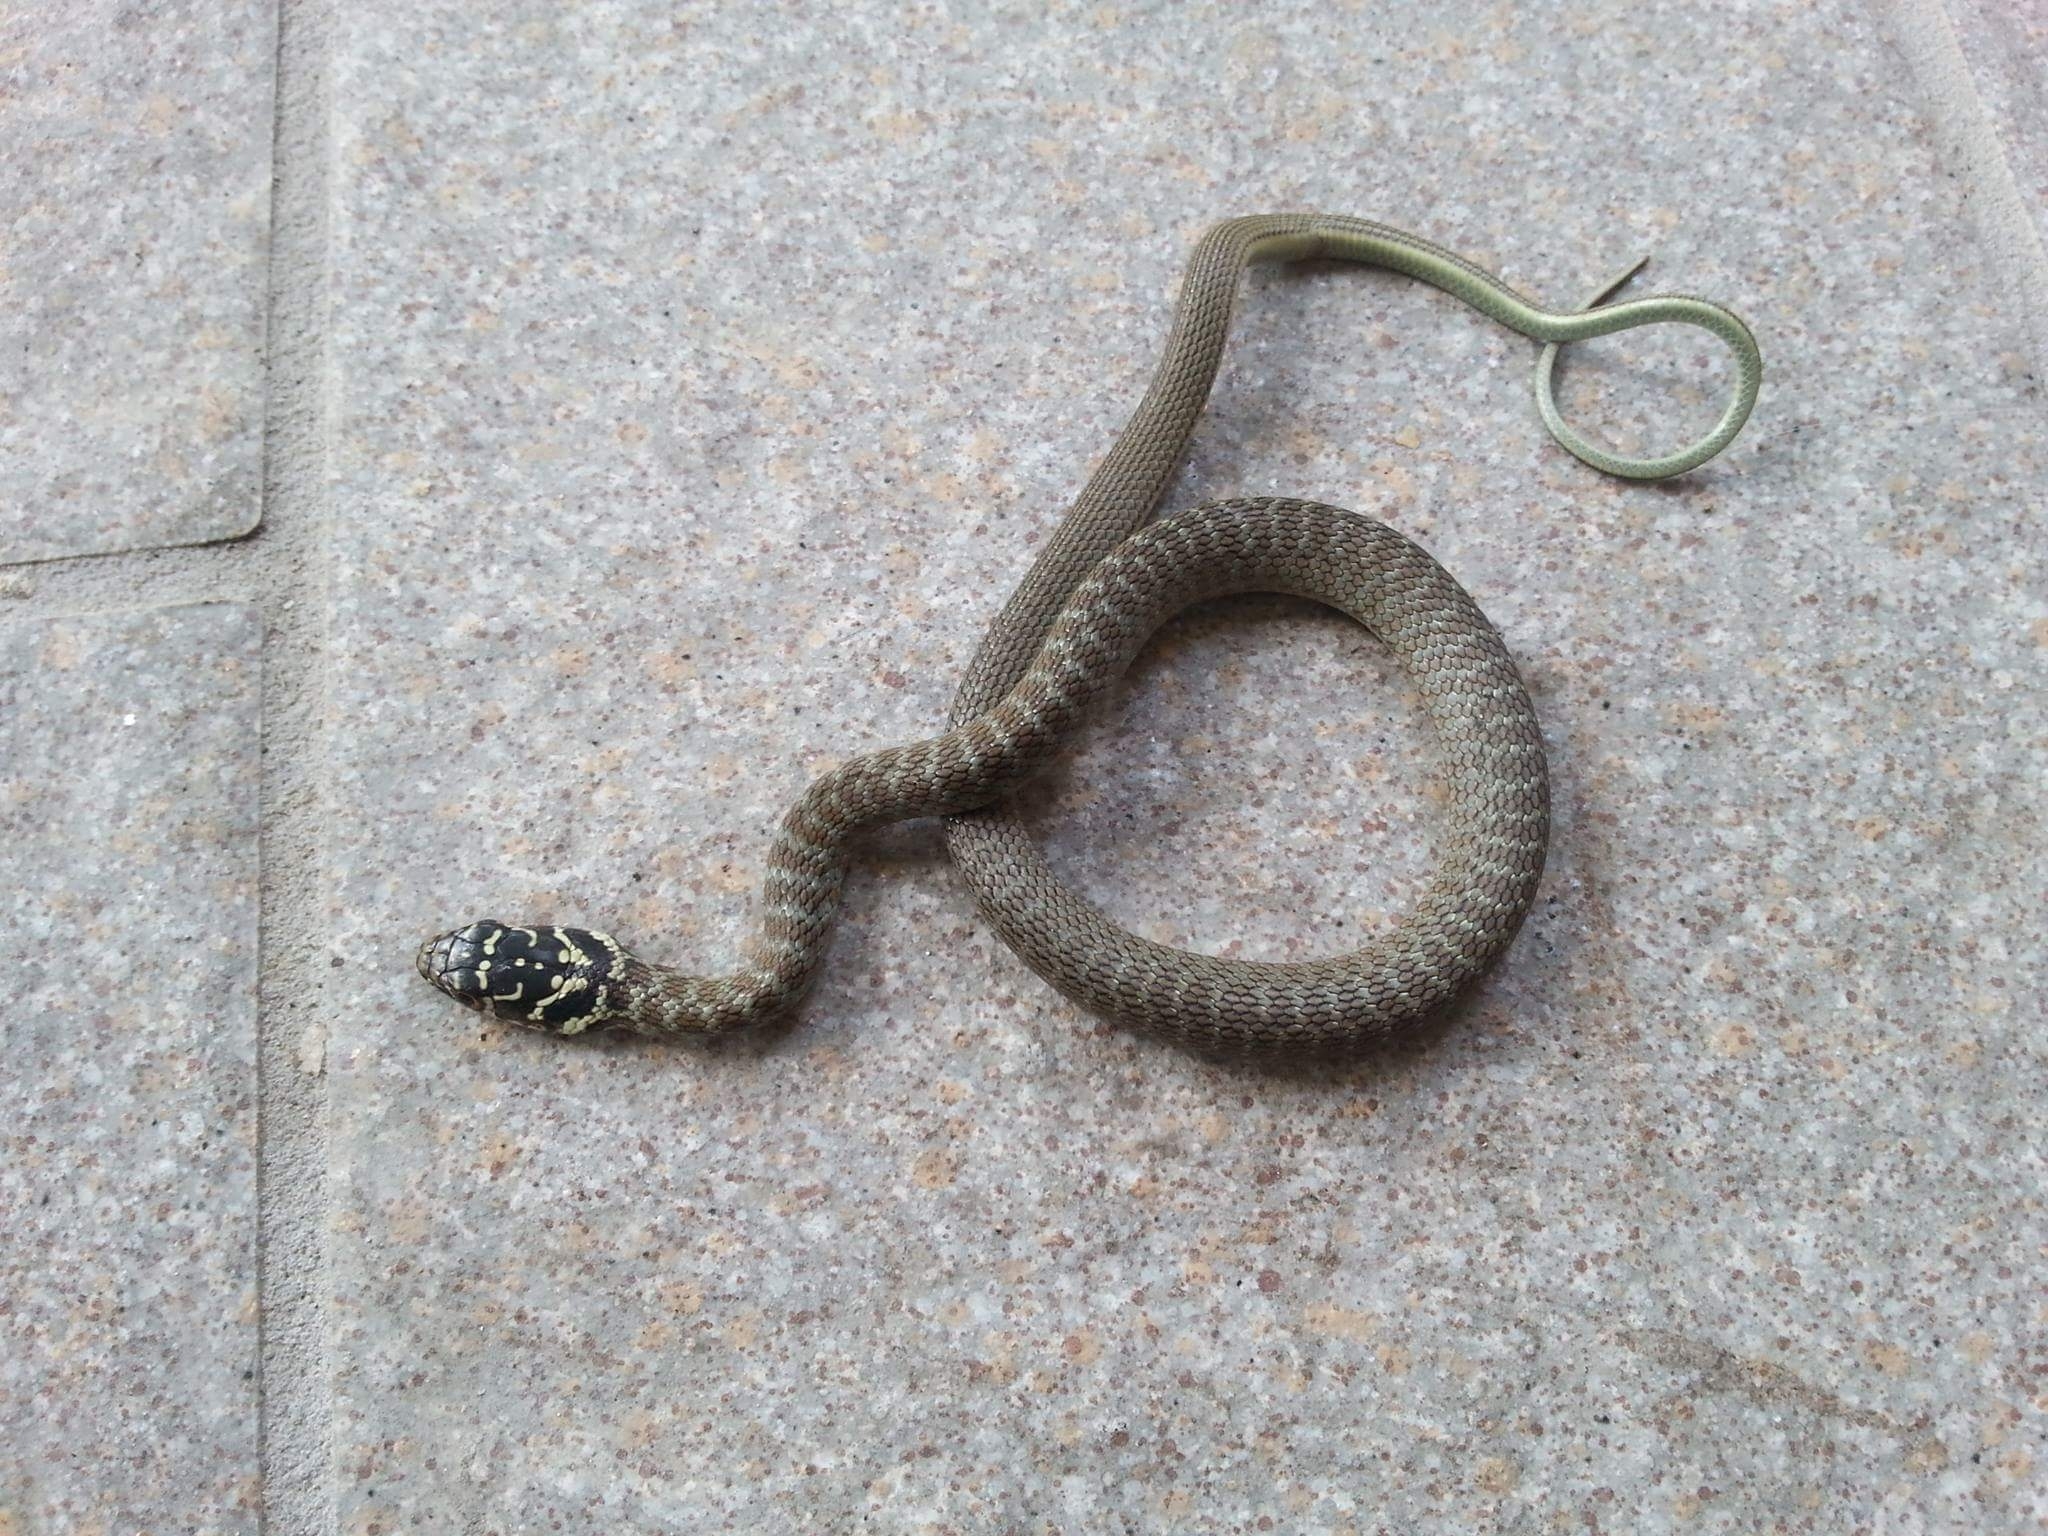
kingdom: Animalia
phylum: Chordata
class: Squamata
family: Colubridae
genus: Hierophis
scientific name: Hierophis viridiflavus
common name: Green whip snake
